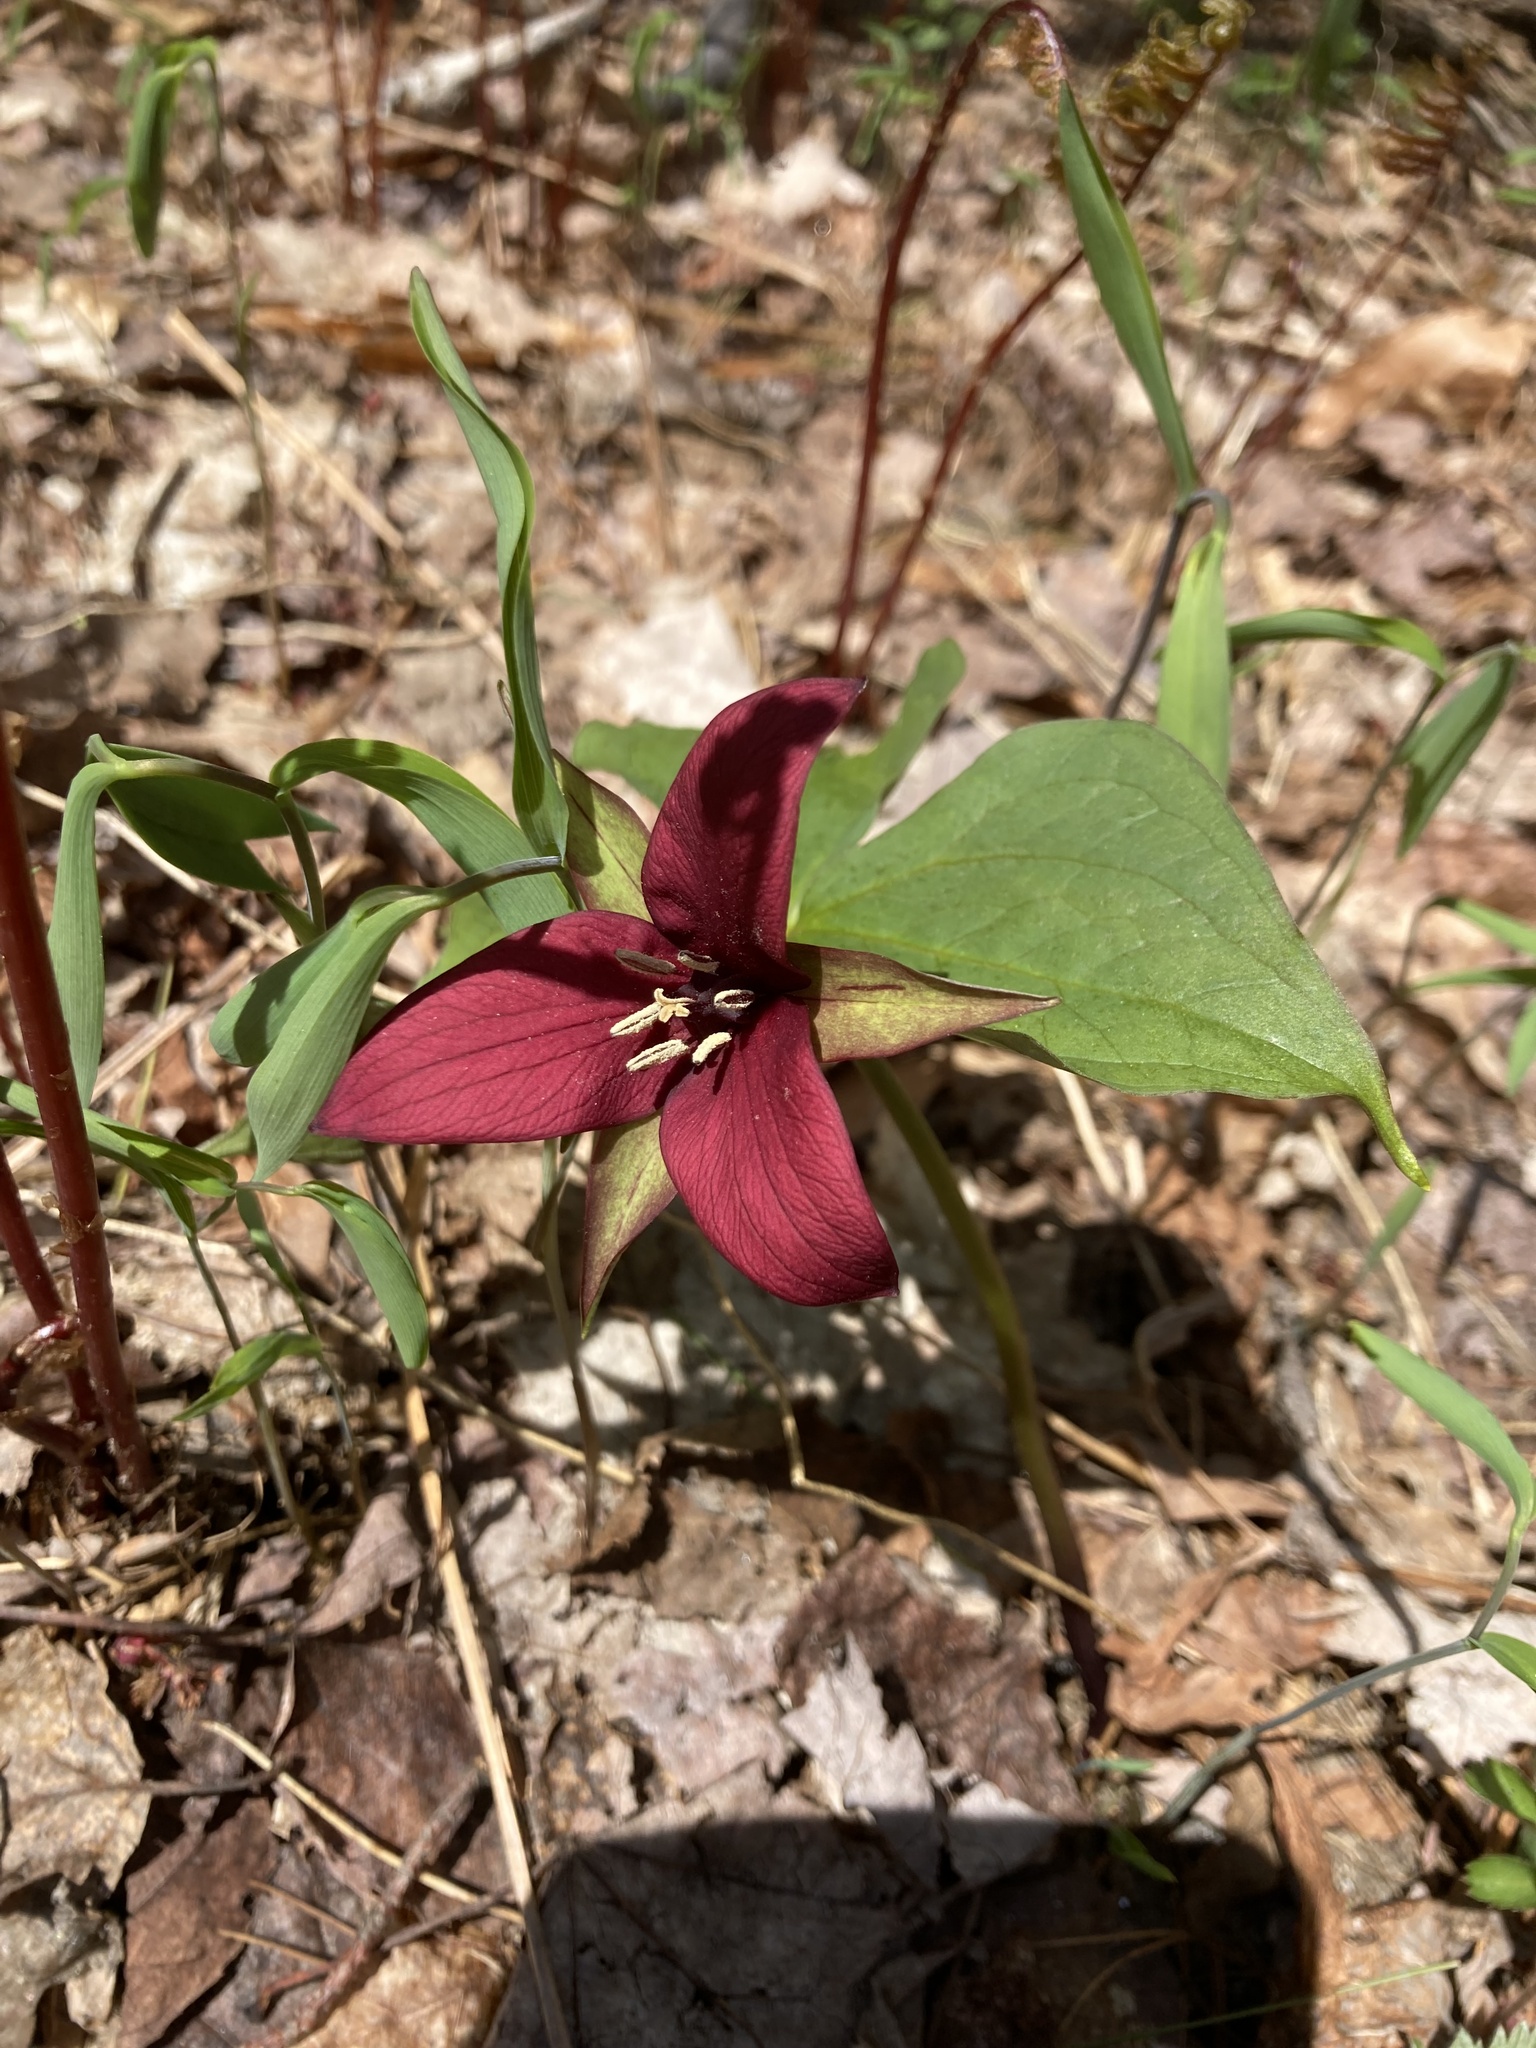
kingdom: Plantae
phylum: Tracheophyta
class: Liliopsida
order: Liliales
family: Melanthiaceae
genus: Trillium
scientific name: Trillium erectum
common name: Purple trillium
